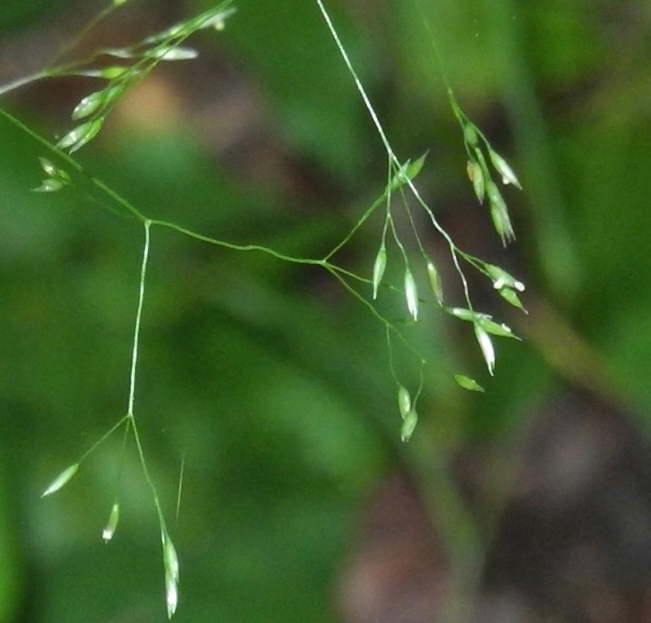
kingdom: Plantae
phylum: Tracheophyta
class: Liliopsida
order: Poales
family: Poaceae
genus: Agrostis
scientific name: Agrostis perennans
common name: Autumn bent
